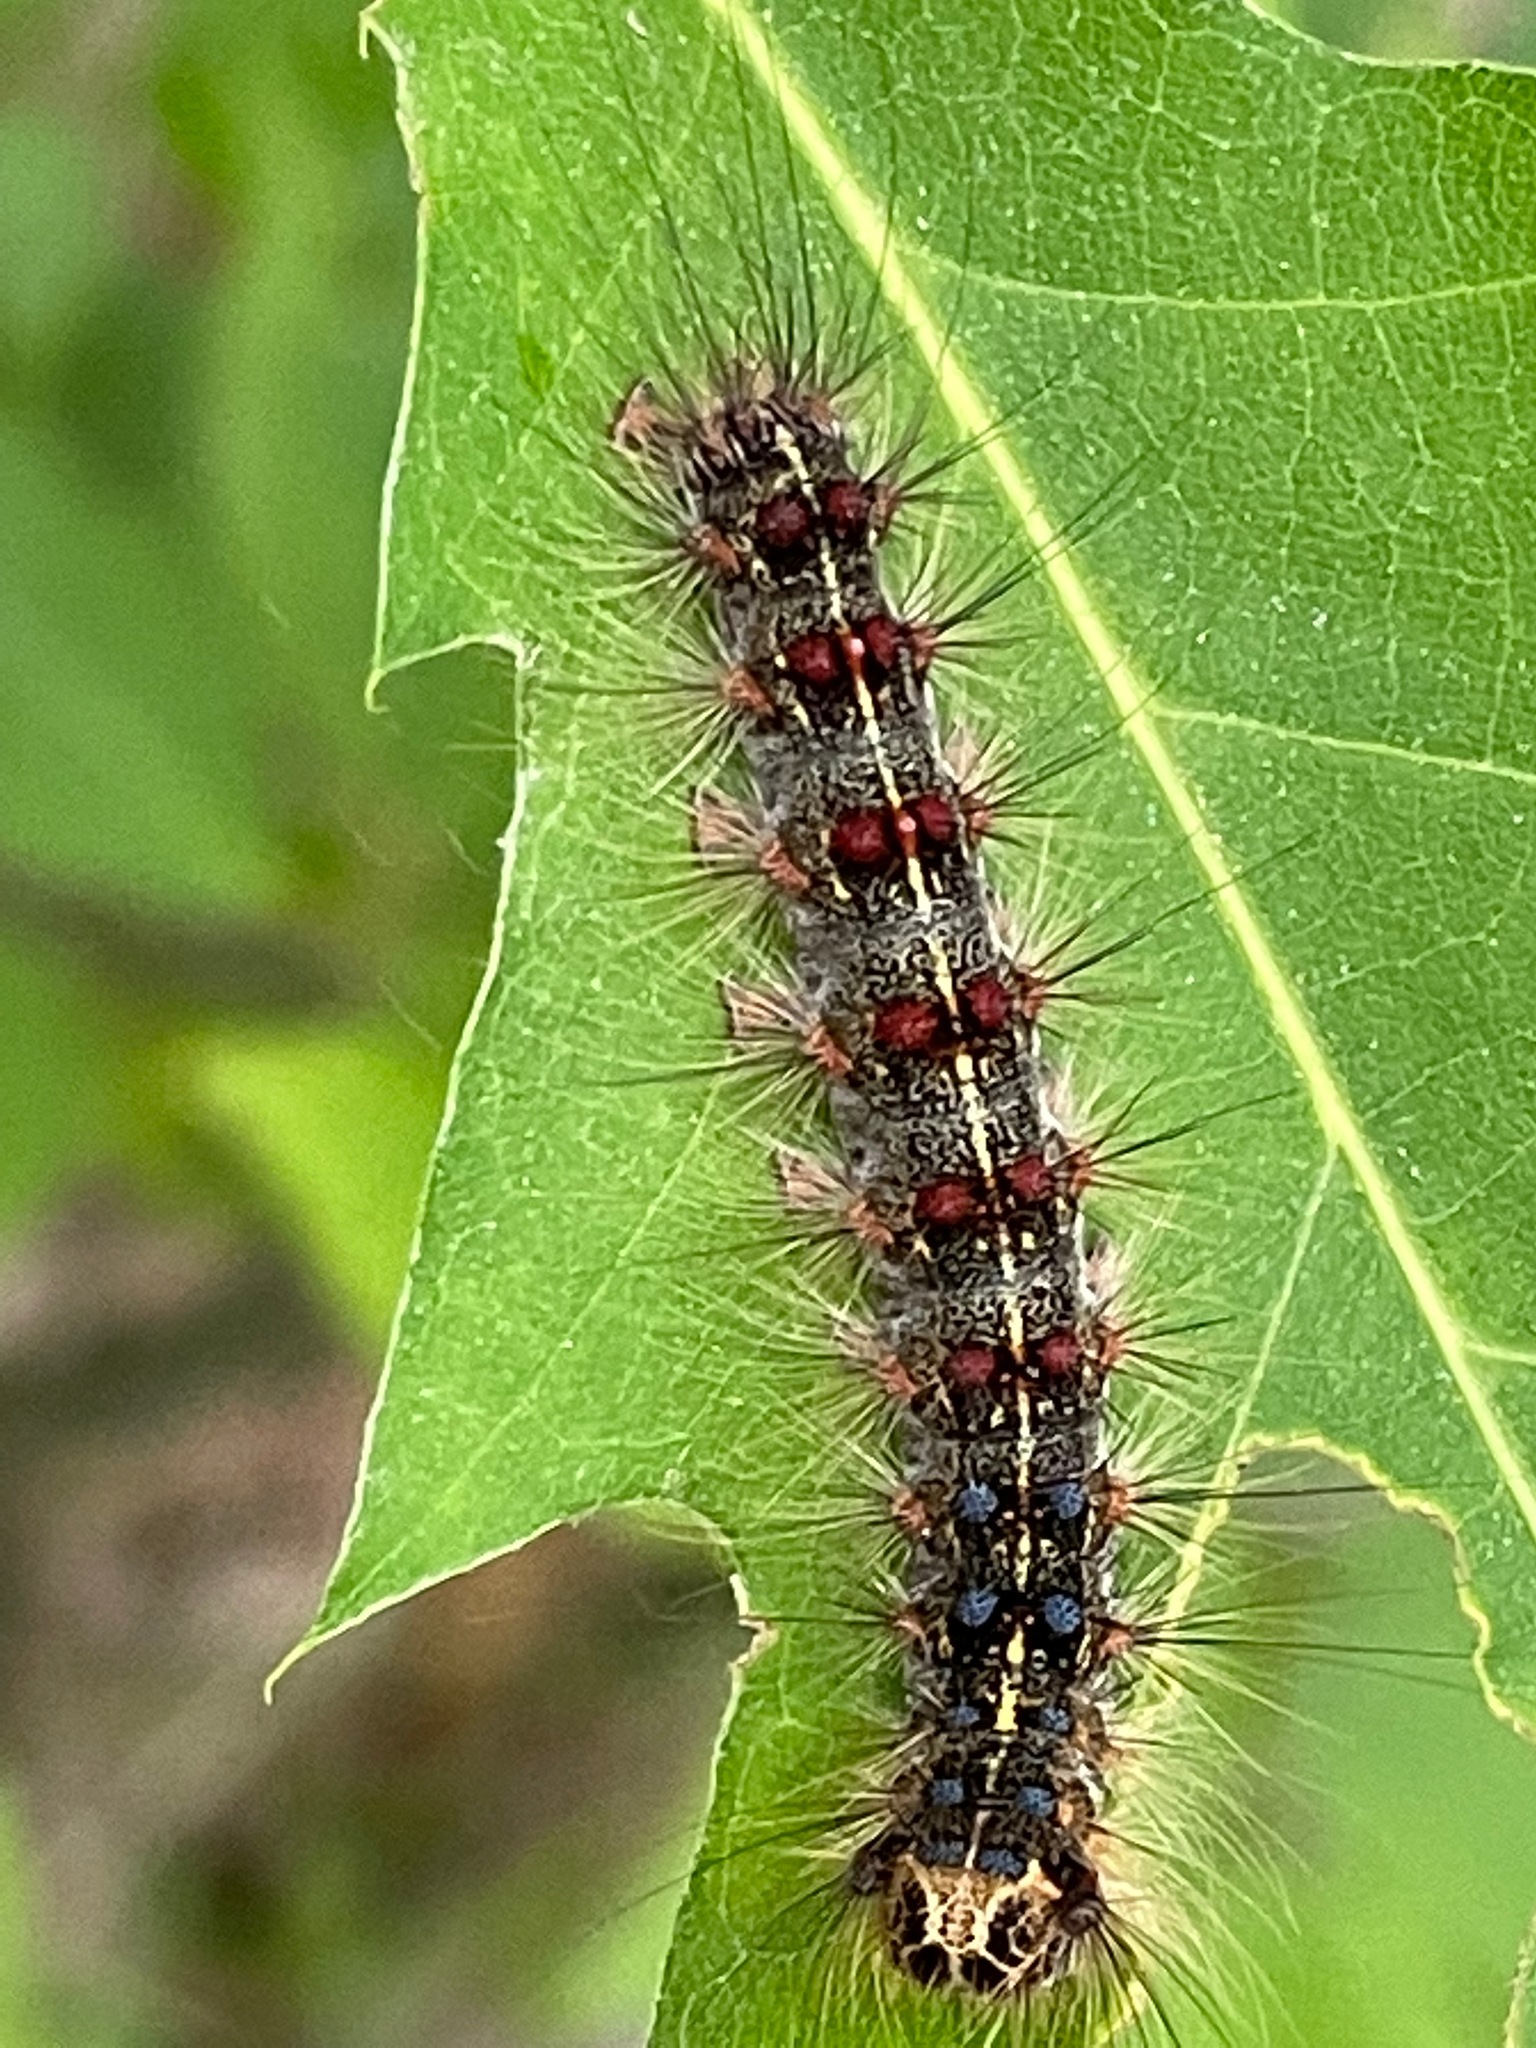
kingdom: Animalia
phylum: Arthropoda
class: Insecta
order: Lepidoptera
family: Erebidae
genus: Lymantria
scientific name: Lymantria dispar
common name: Gypsy moth
